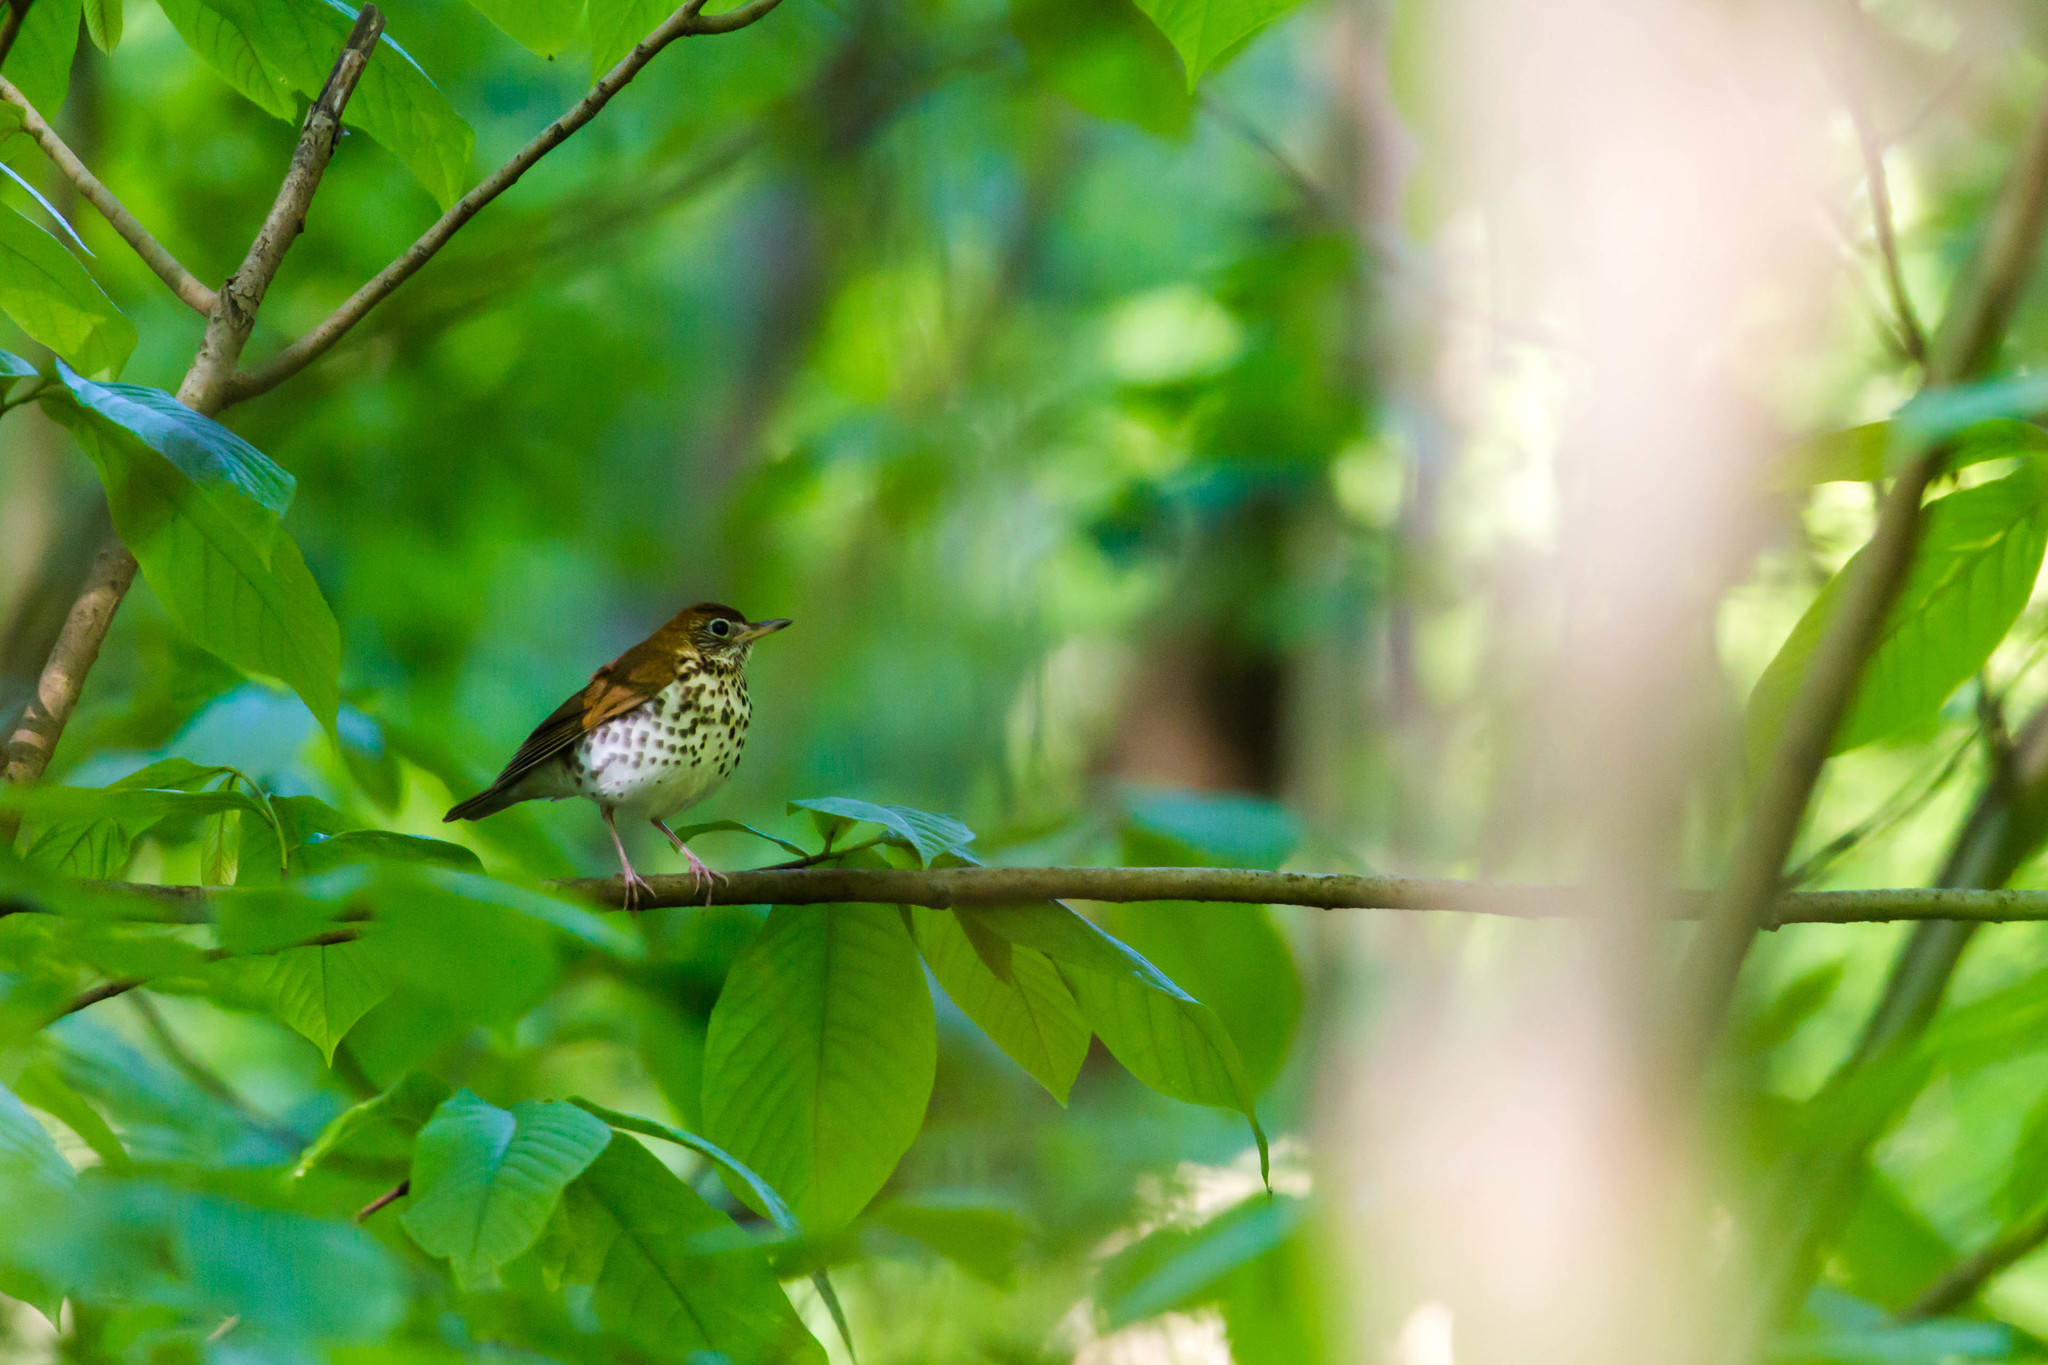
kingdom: Animalia
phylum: Chordata
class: Aves
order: Passeriformes
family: Turdidae
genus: Hylocichla
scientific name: Hylocichla mustelina
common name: Wood thrush
